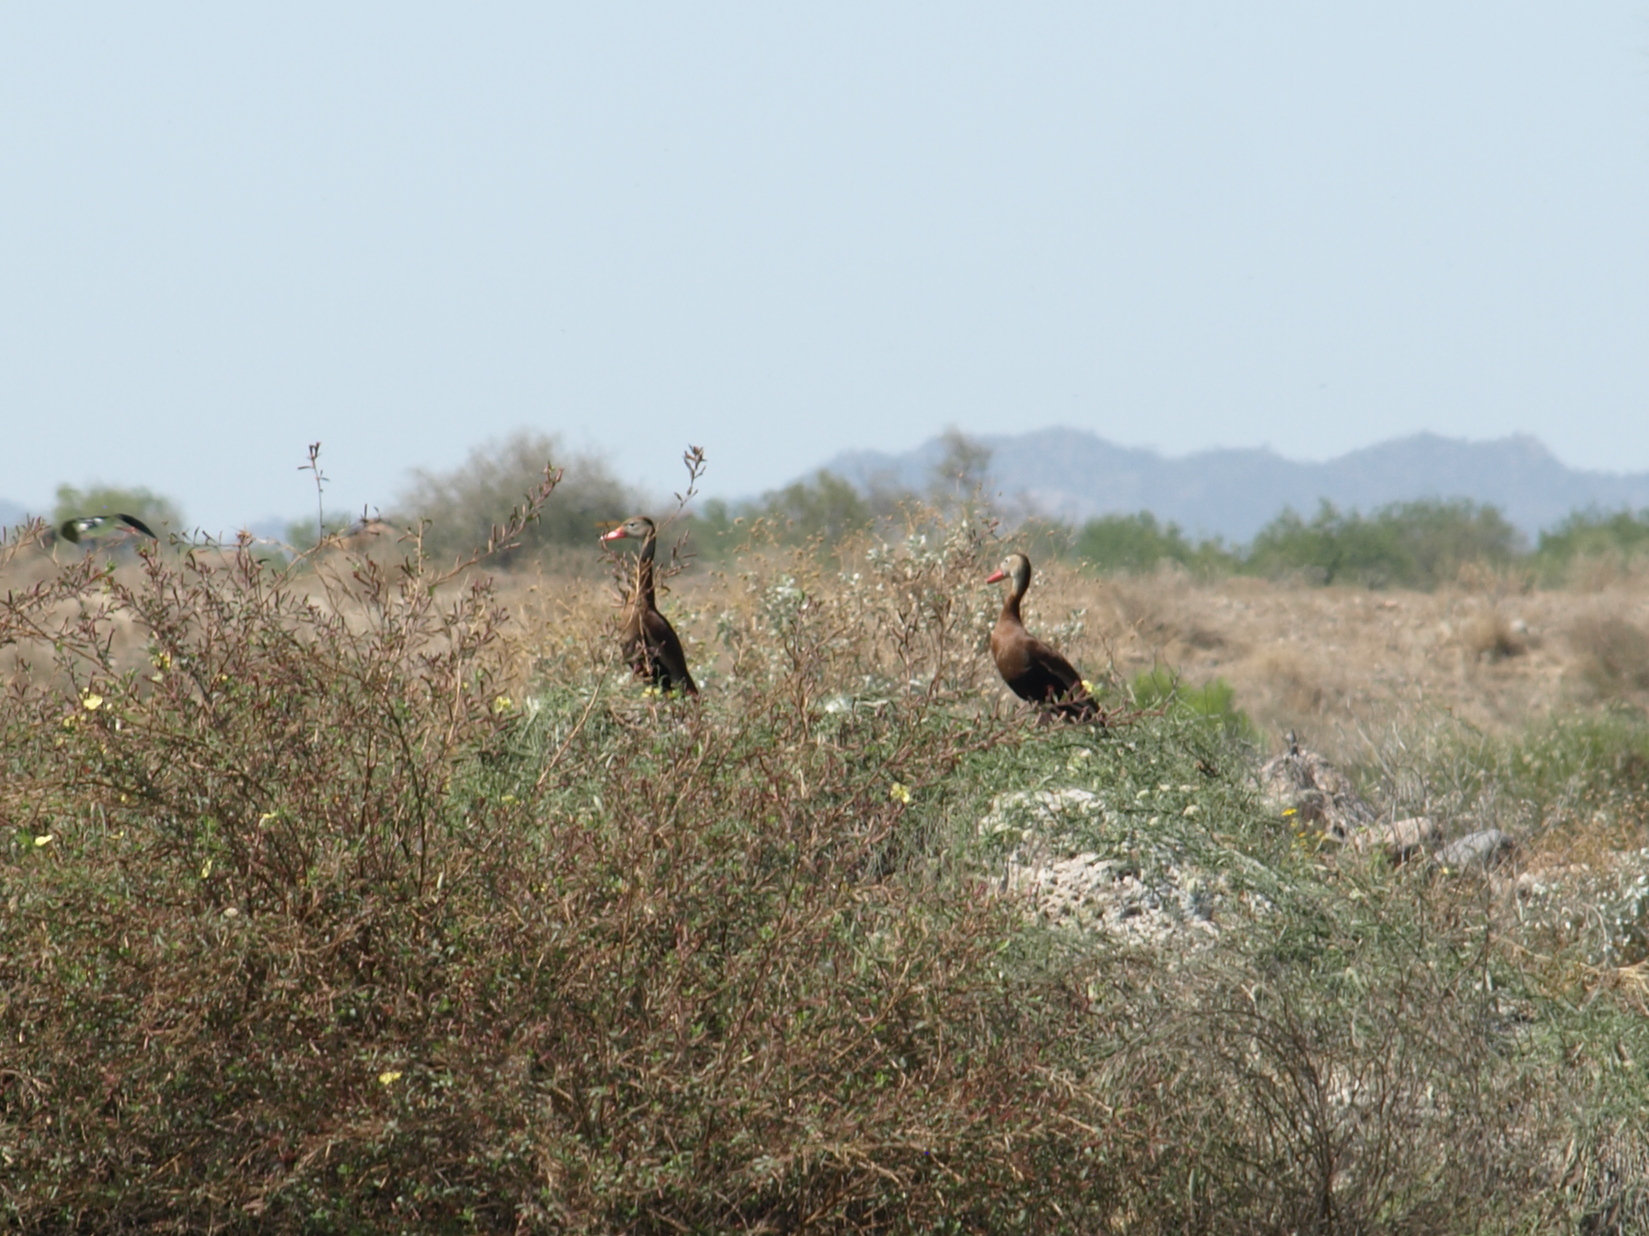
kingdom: Animalia
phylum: Chordata
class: Aves
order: Anseriformes
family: Anatidae
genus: Dendrocygna
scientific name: Dendrocygna autumnalis
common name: Black-bellied whistling duck
